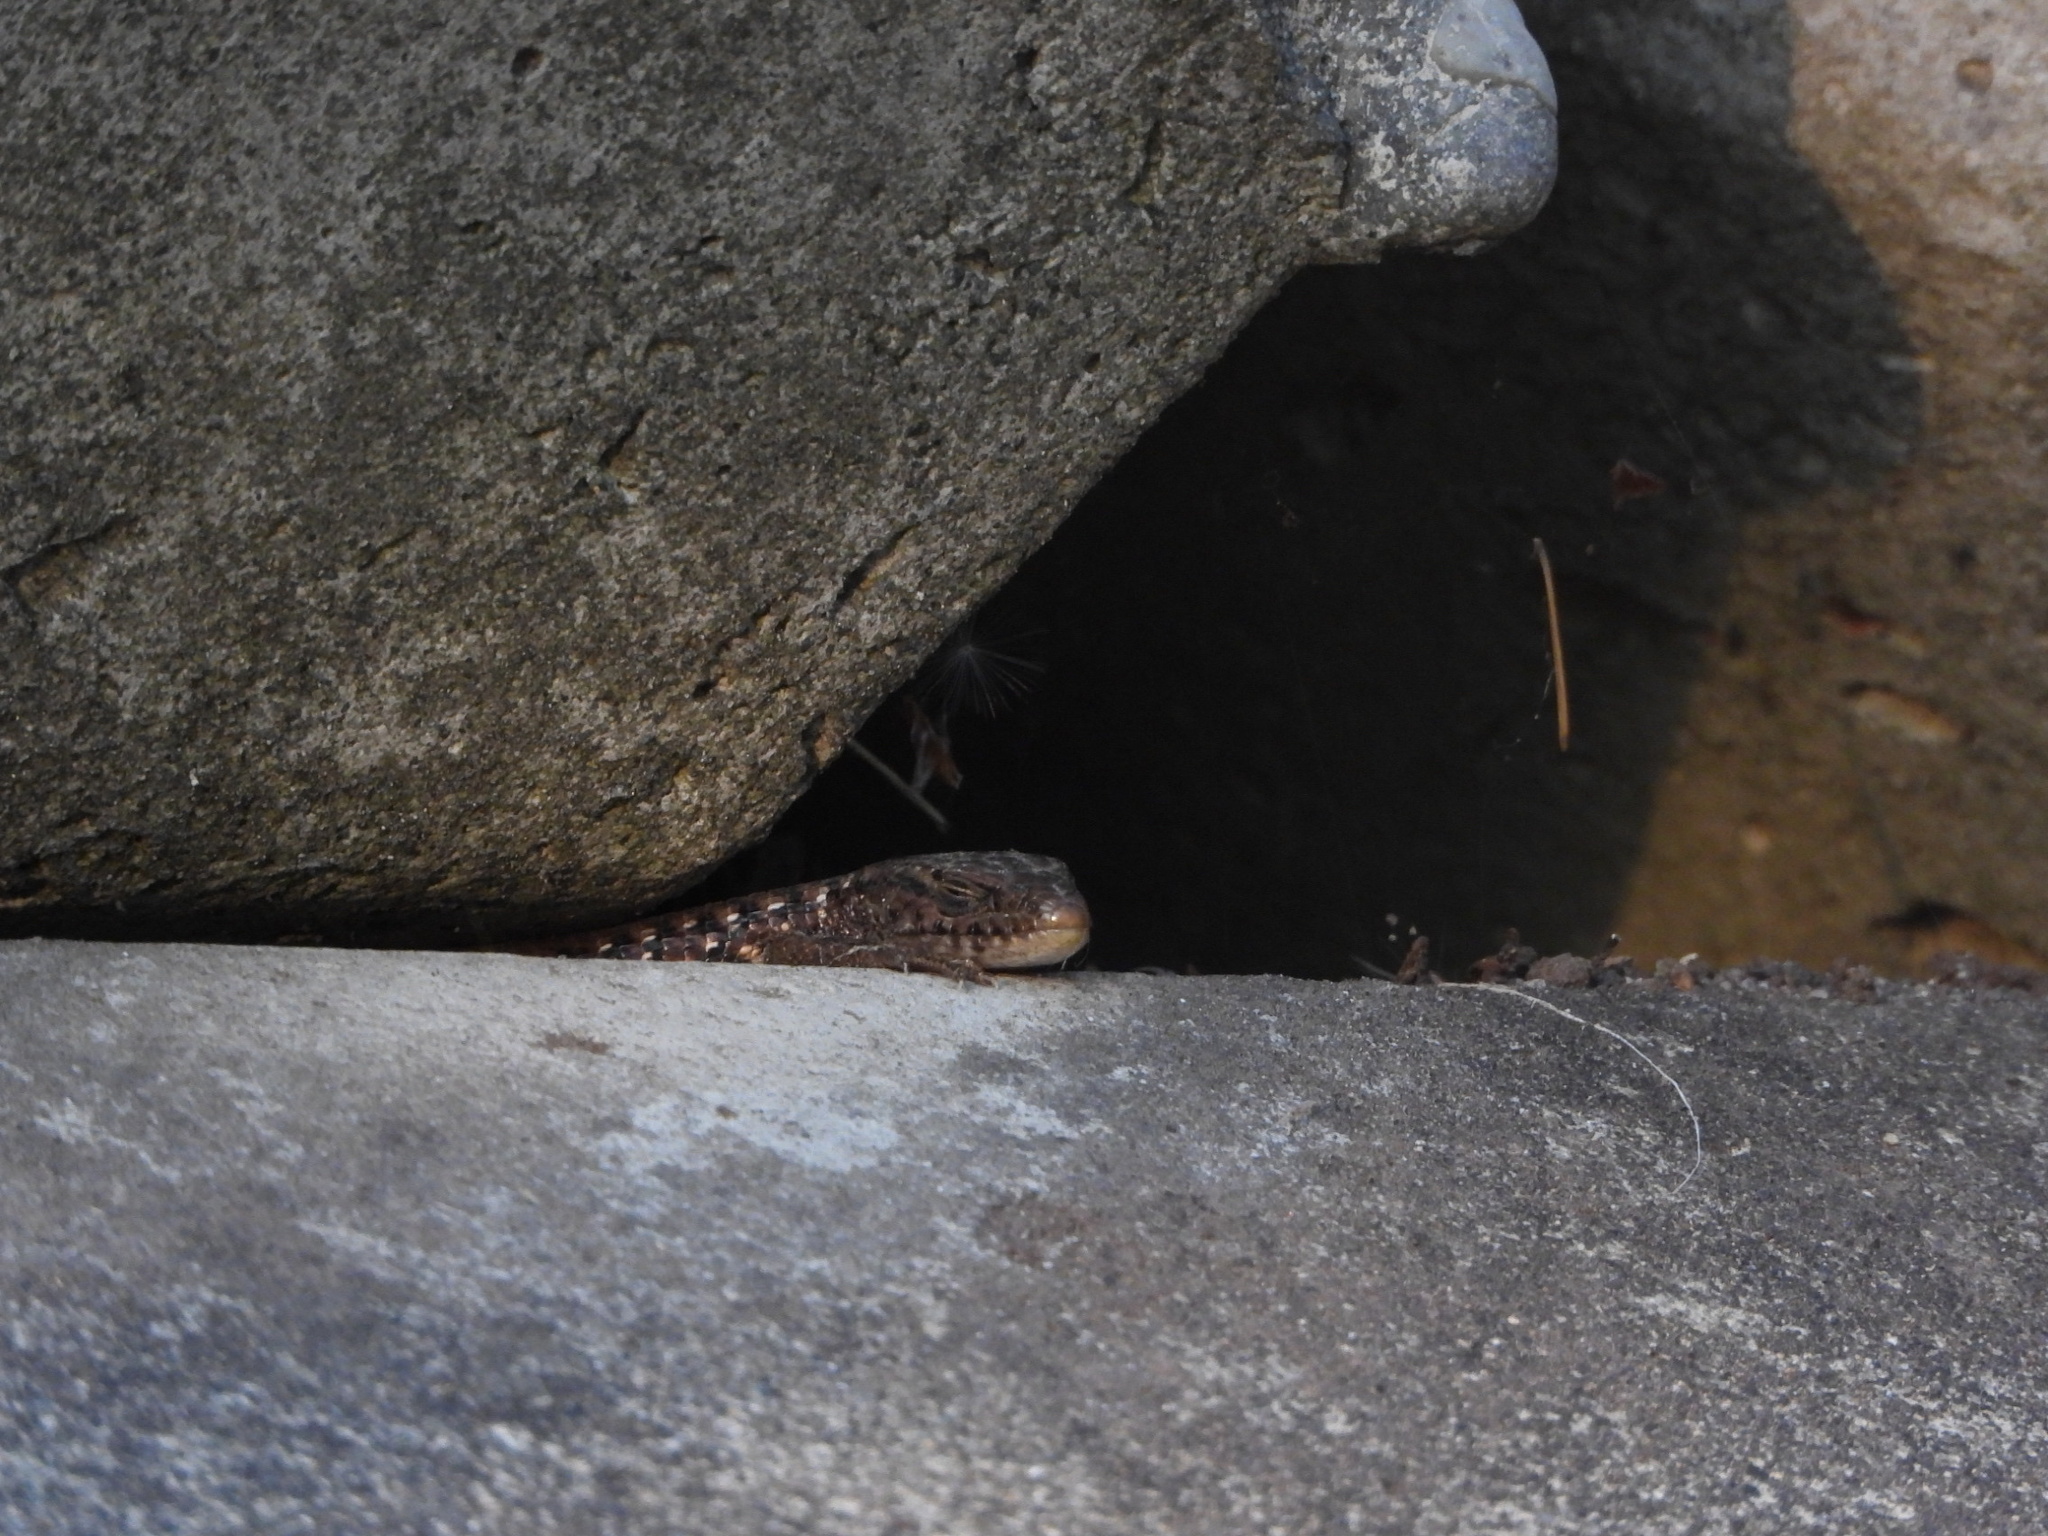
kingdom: Animalia
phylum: Chordata
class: Squamata
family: Anguidae
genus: Elgaria
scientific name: Elgaria coerulea
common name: Northern alligator lizard
